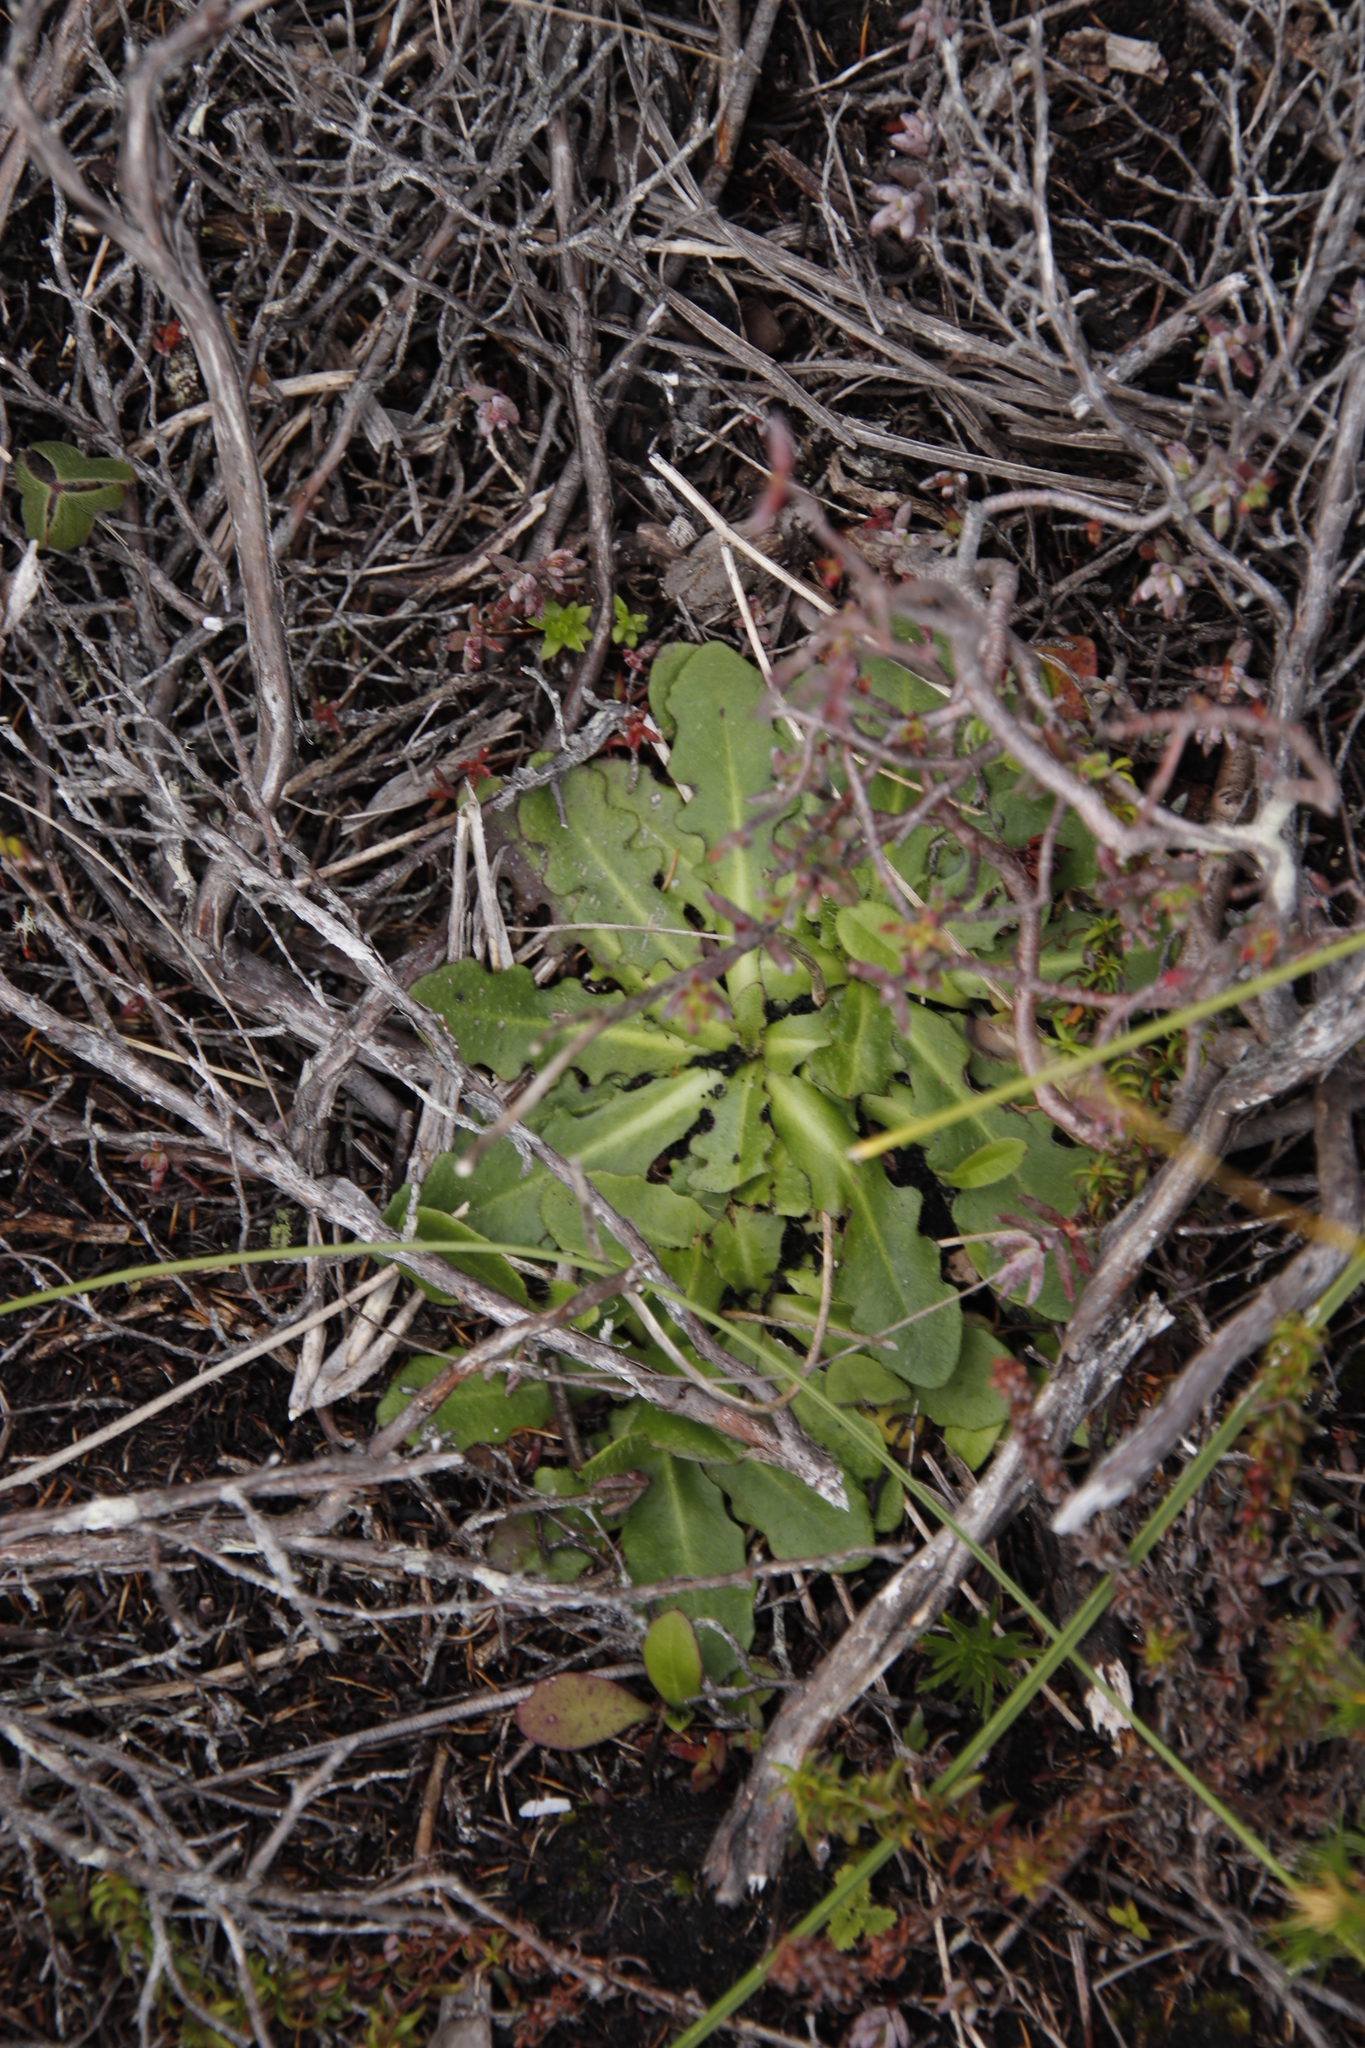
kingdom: Plantae
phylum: Tracheophyta
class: Magnoliopsida
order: Asterales
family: Asteraceae
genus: Hypochaeris
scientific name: Hypochaeris radicata
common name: Flatweed
